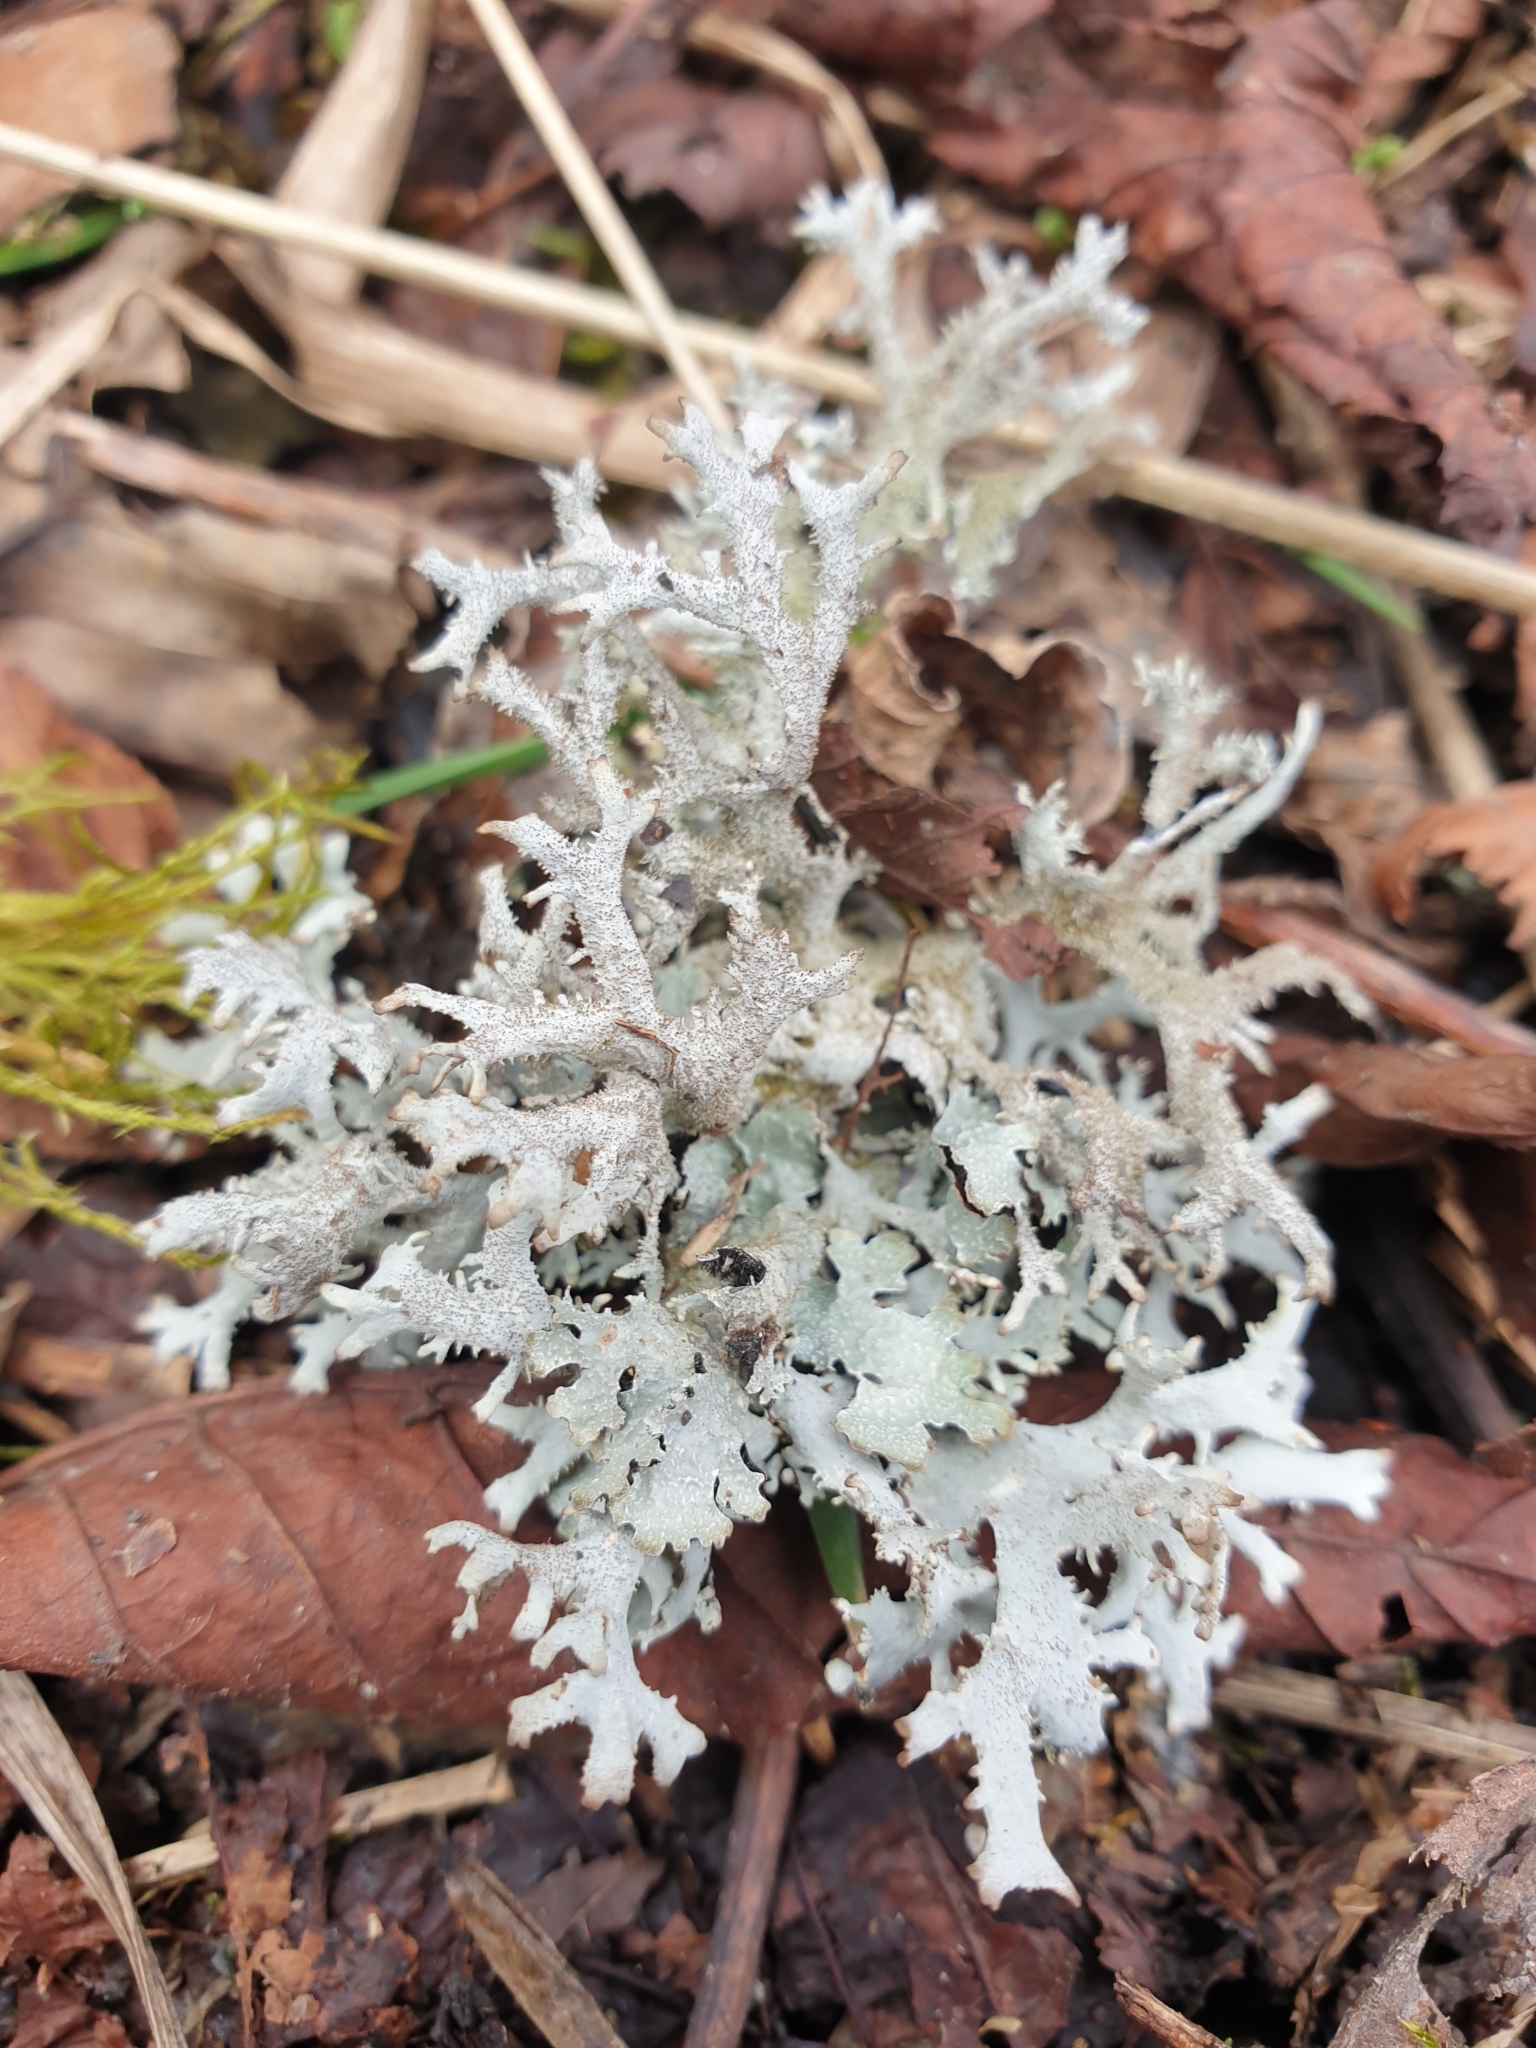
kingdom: Fungi
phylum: Ascomycota
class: Lecanoromycetes
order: Lecanorales
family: Parmeliaceae
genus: Pseudevernia
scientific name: Pseudevernia furfuracea
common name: Tree moss
